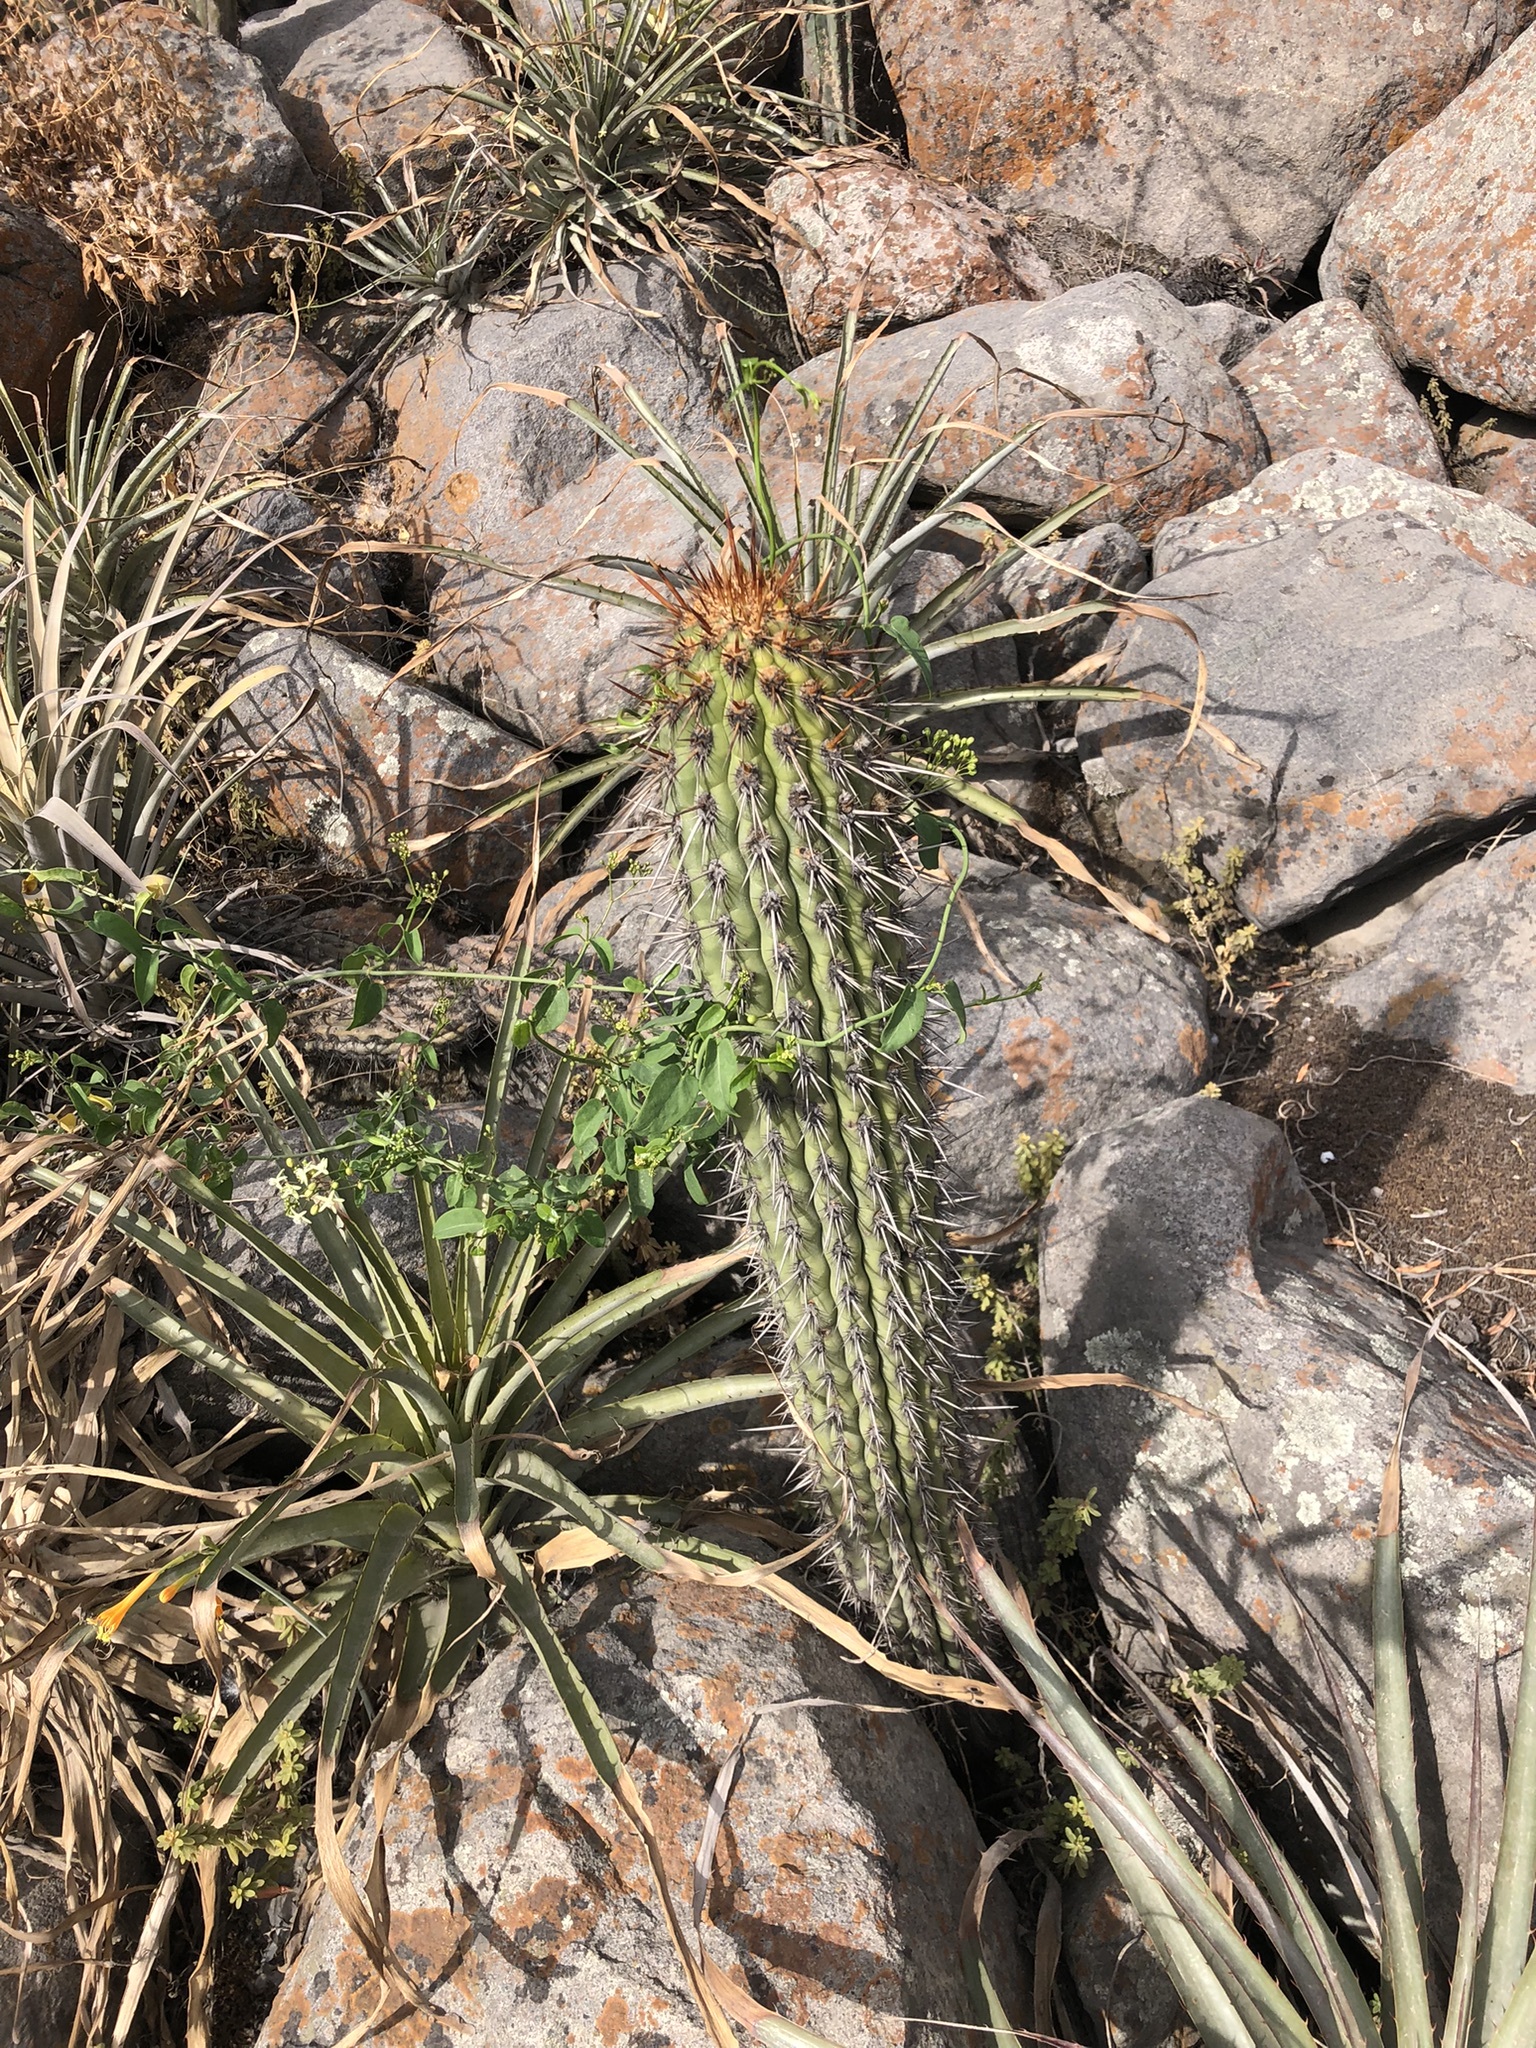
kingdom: Plantae
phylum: Tracheophyta
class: Magnoliopsida
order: Caryophyllales
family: Cactaceae
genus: Haageocereus
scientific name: Haageocereus acranthus
